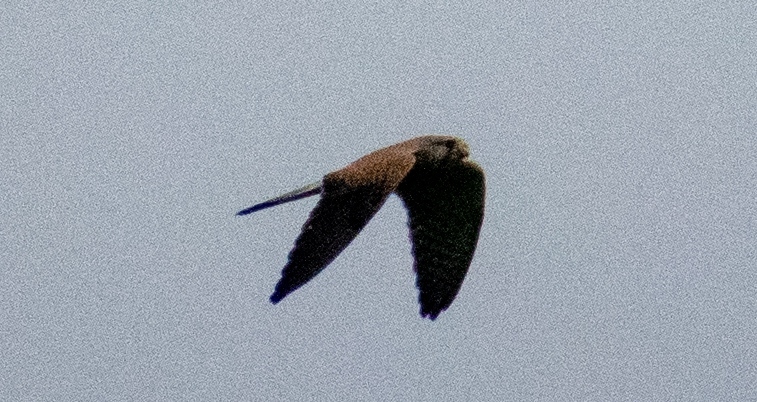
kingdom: Animalia
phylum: Chordata
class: Aves
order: Falconiformes
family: Falconidae
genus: Falco
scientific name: Falco tinnunculus
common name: Common kestrel
